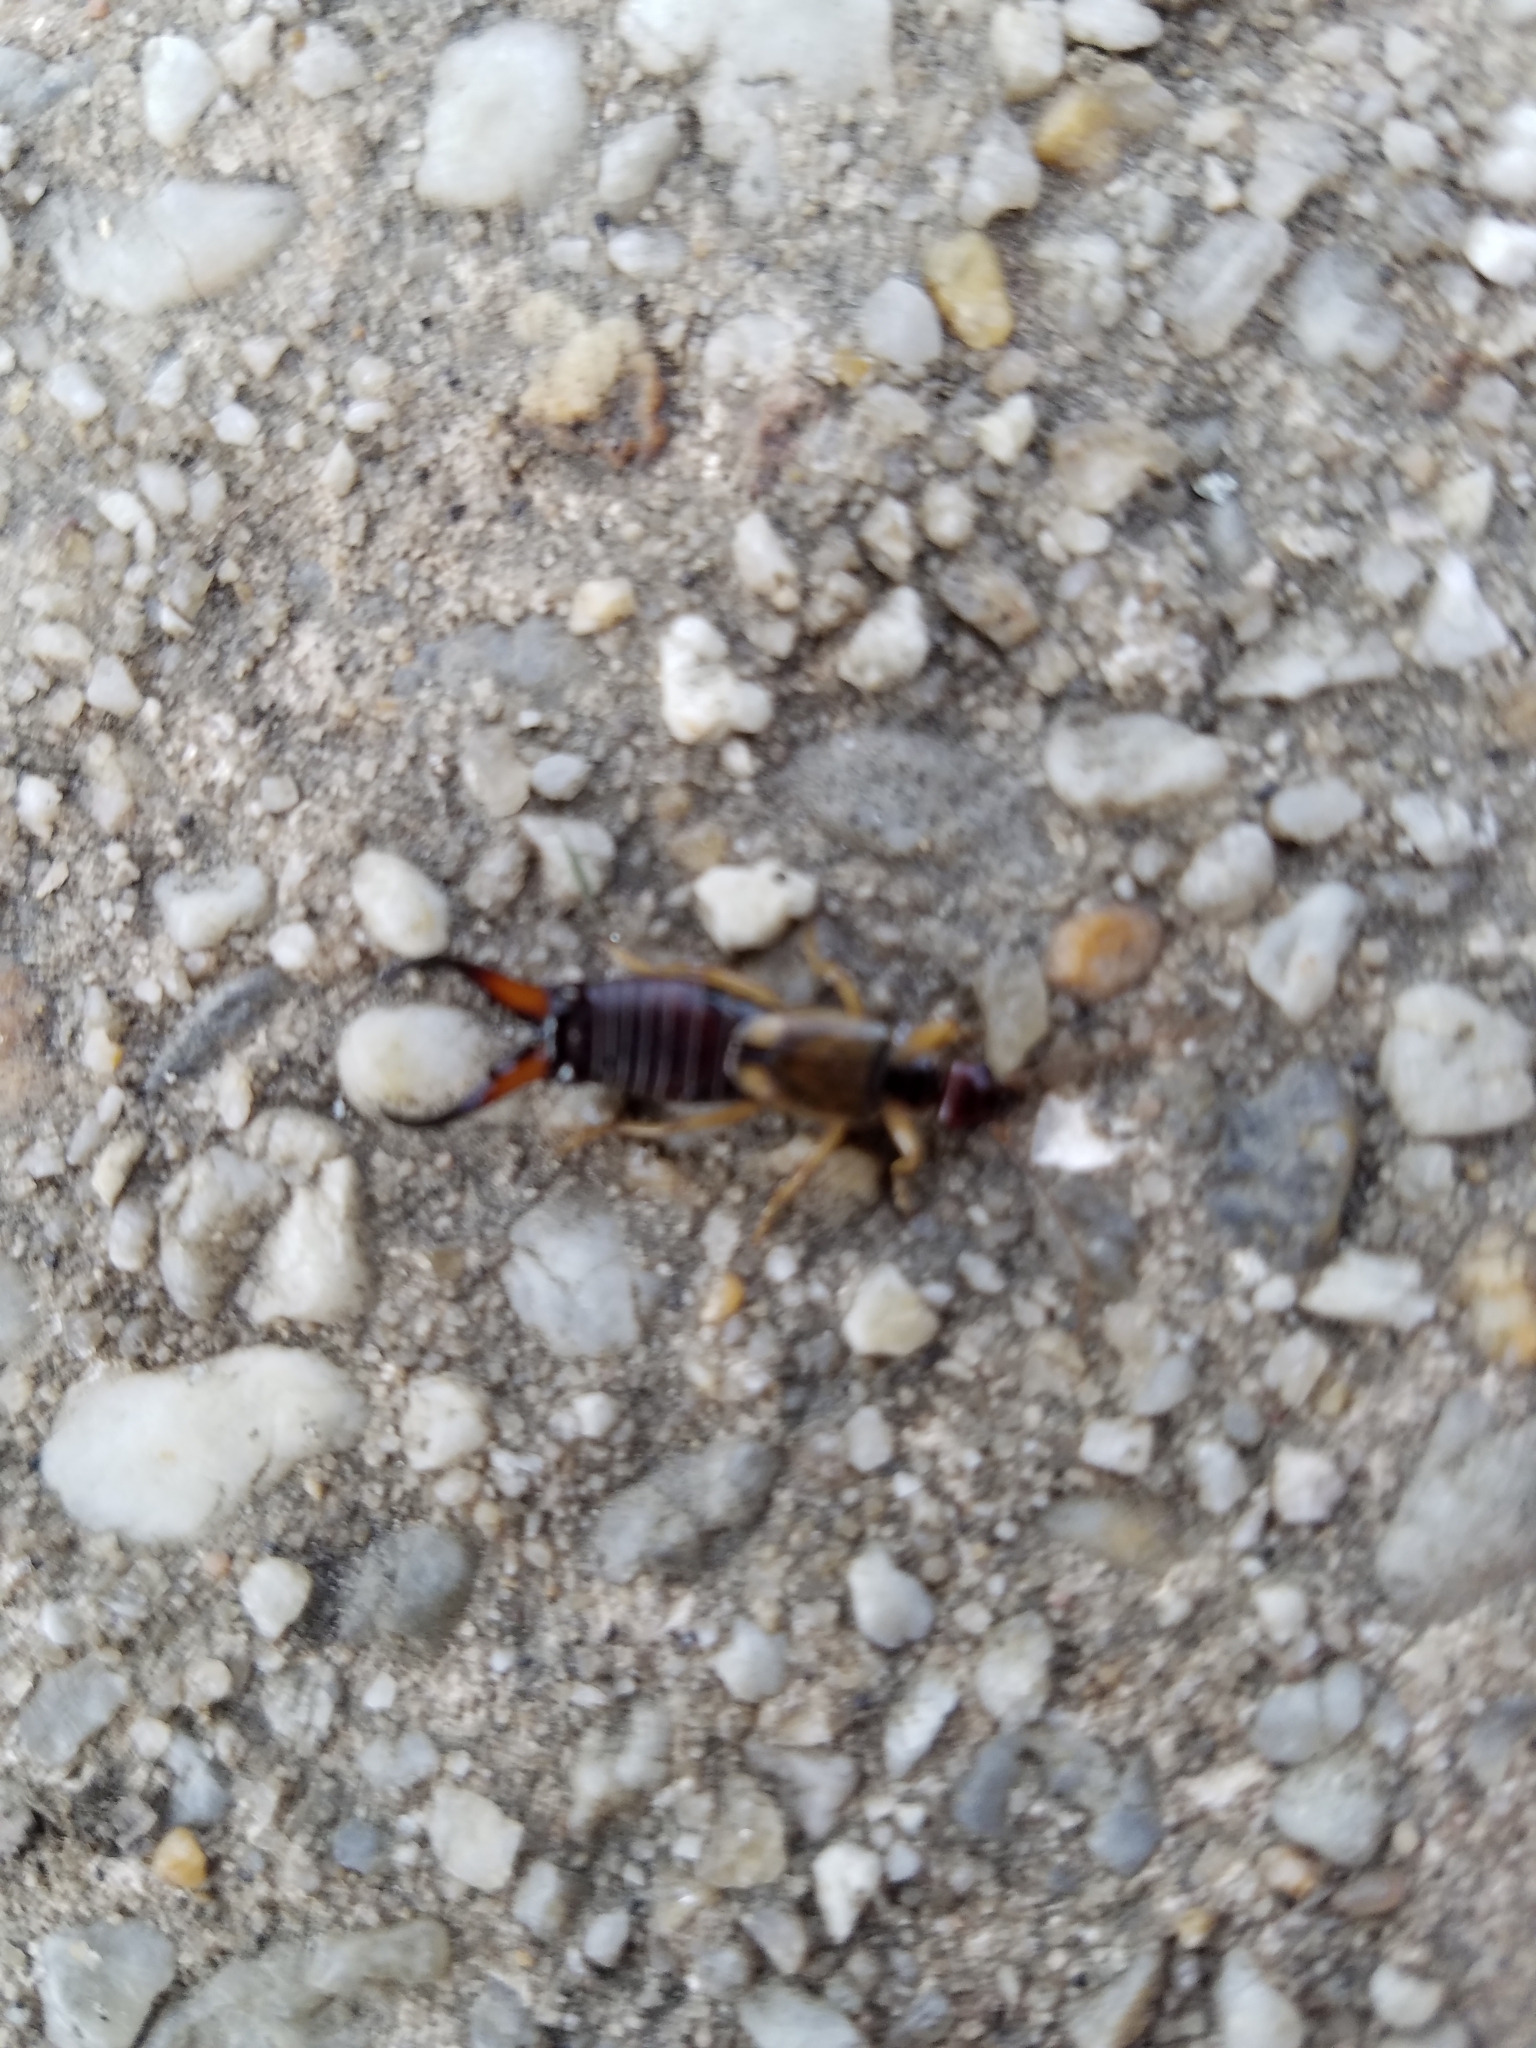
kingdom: Animalia
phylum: Arthropoda
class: Insecta
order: Dermaptera
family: Forficulidae
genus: Forficula
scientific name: Forficula
